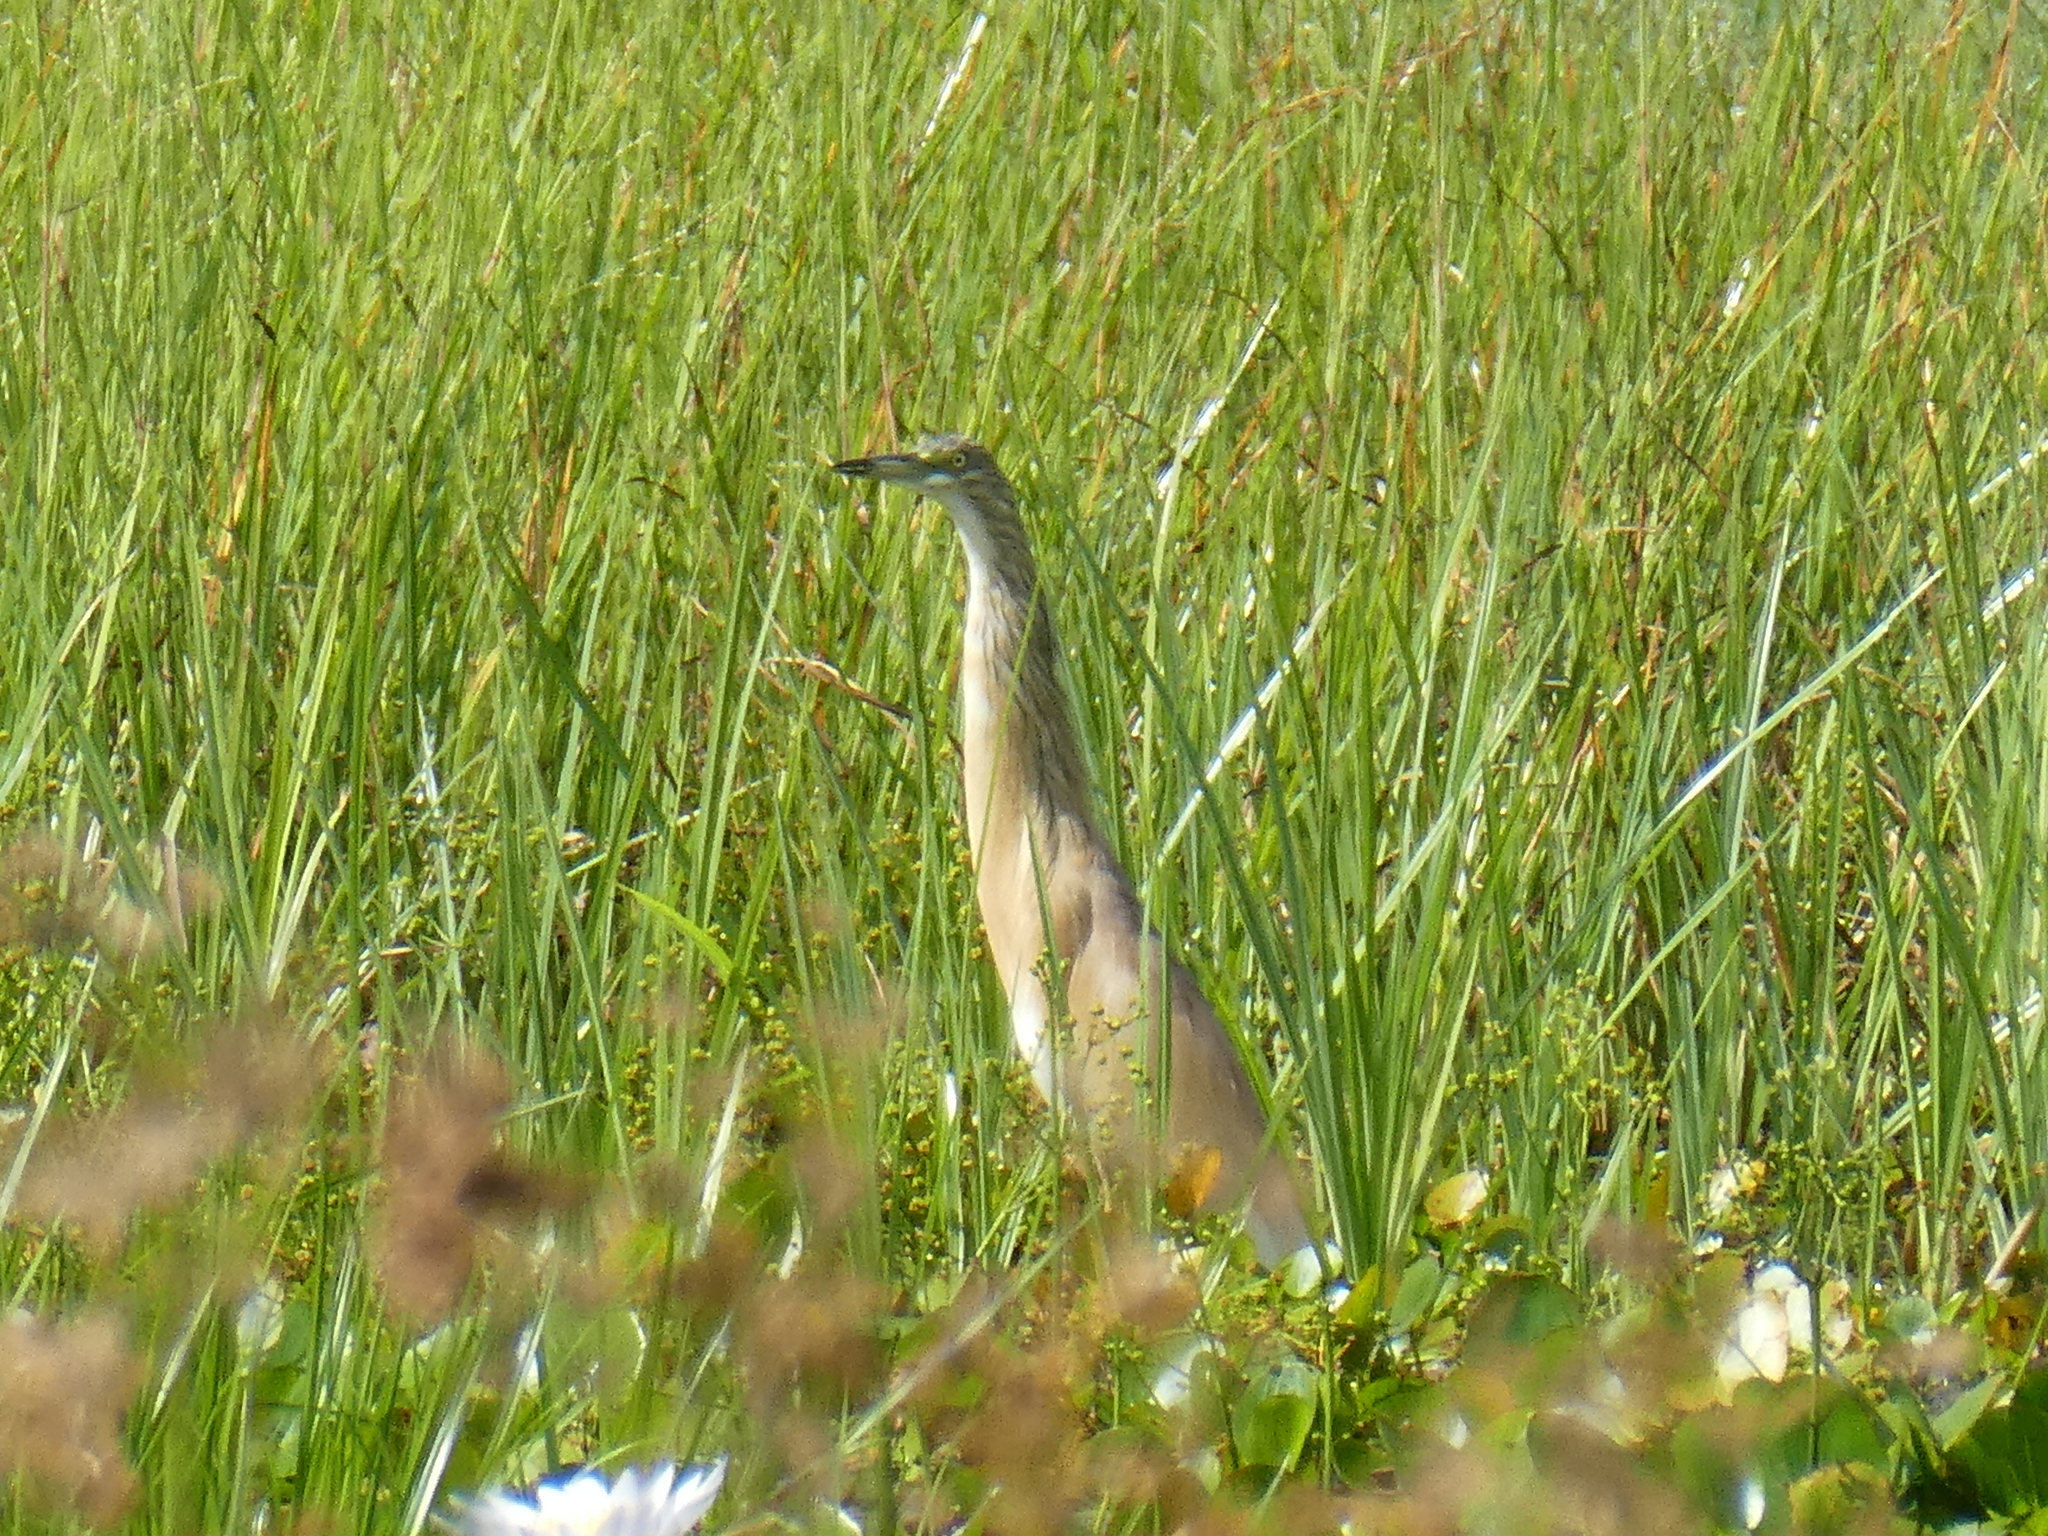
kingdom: Animalia
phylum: Chordata
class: Aves
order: Pelecaniformes
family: Ardeidae
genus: Ardeola
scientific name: Ardeola ralloides
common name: Squacco heron
